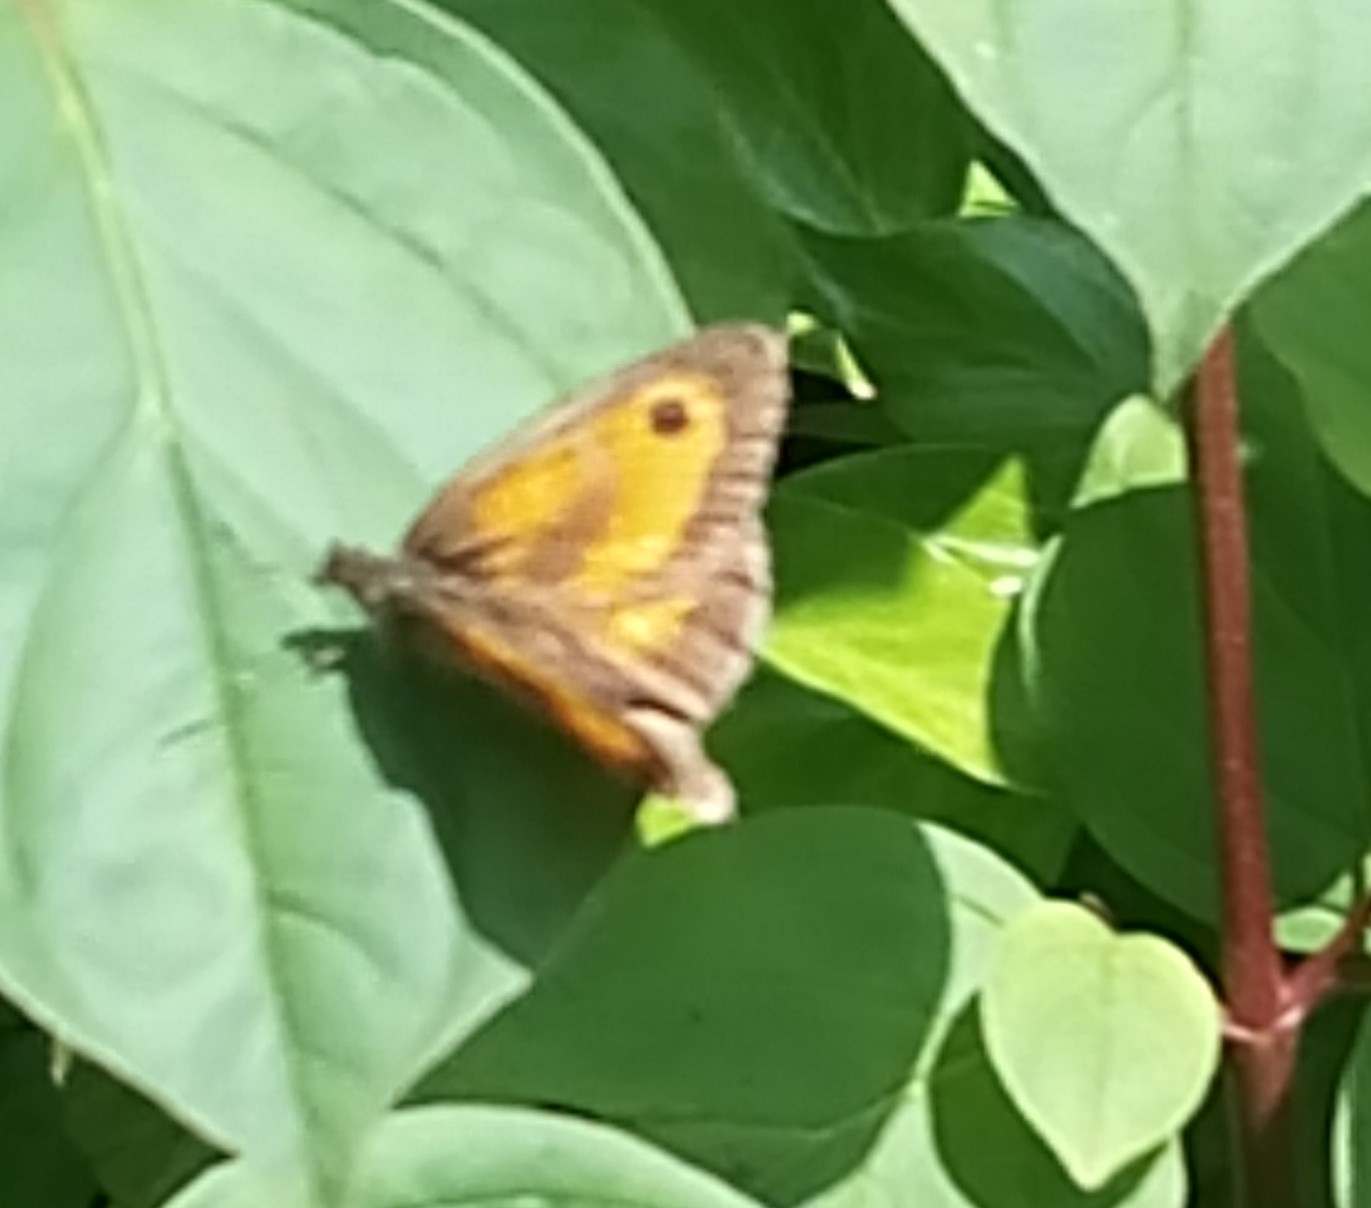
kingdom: Animalia
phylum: Arthropoda
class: Insecta
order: Lepidoptera
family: Nymphalidae
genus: Pyronia
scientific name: Pyronia tithonus
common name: Gatekeeper
